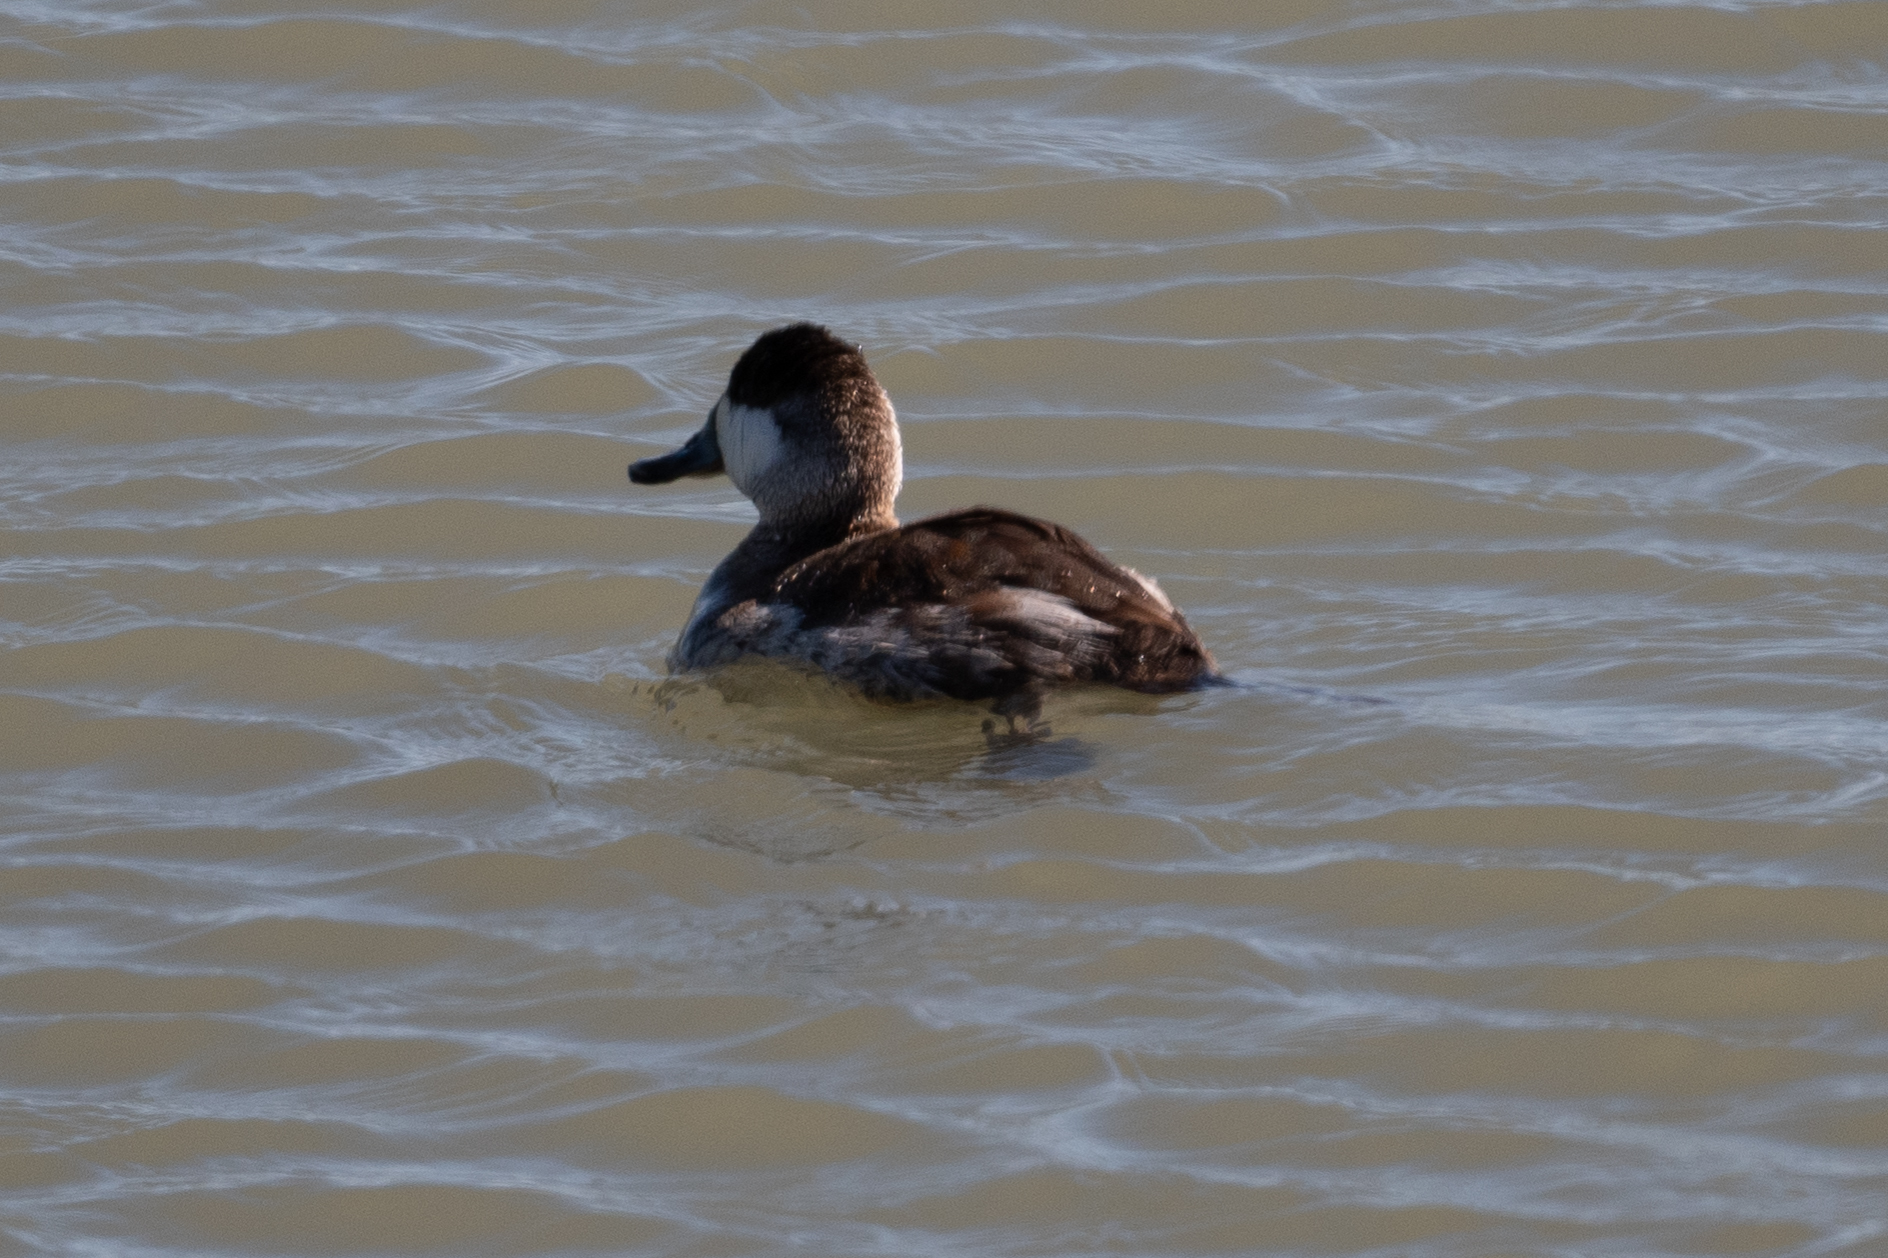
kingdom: Animalia
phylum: Chordata
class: Aves
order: Anseriformes
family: Anatidae
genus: Oxyura
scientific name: Oxyura jamaicensis
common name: Ruddy duck
